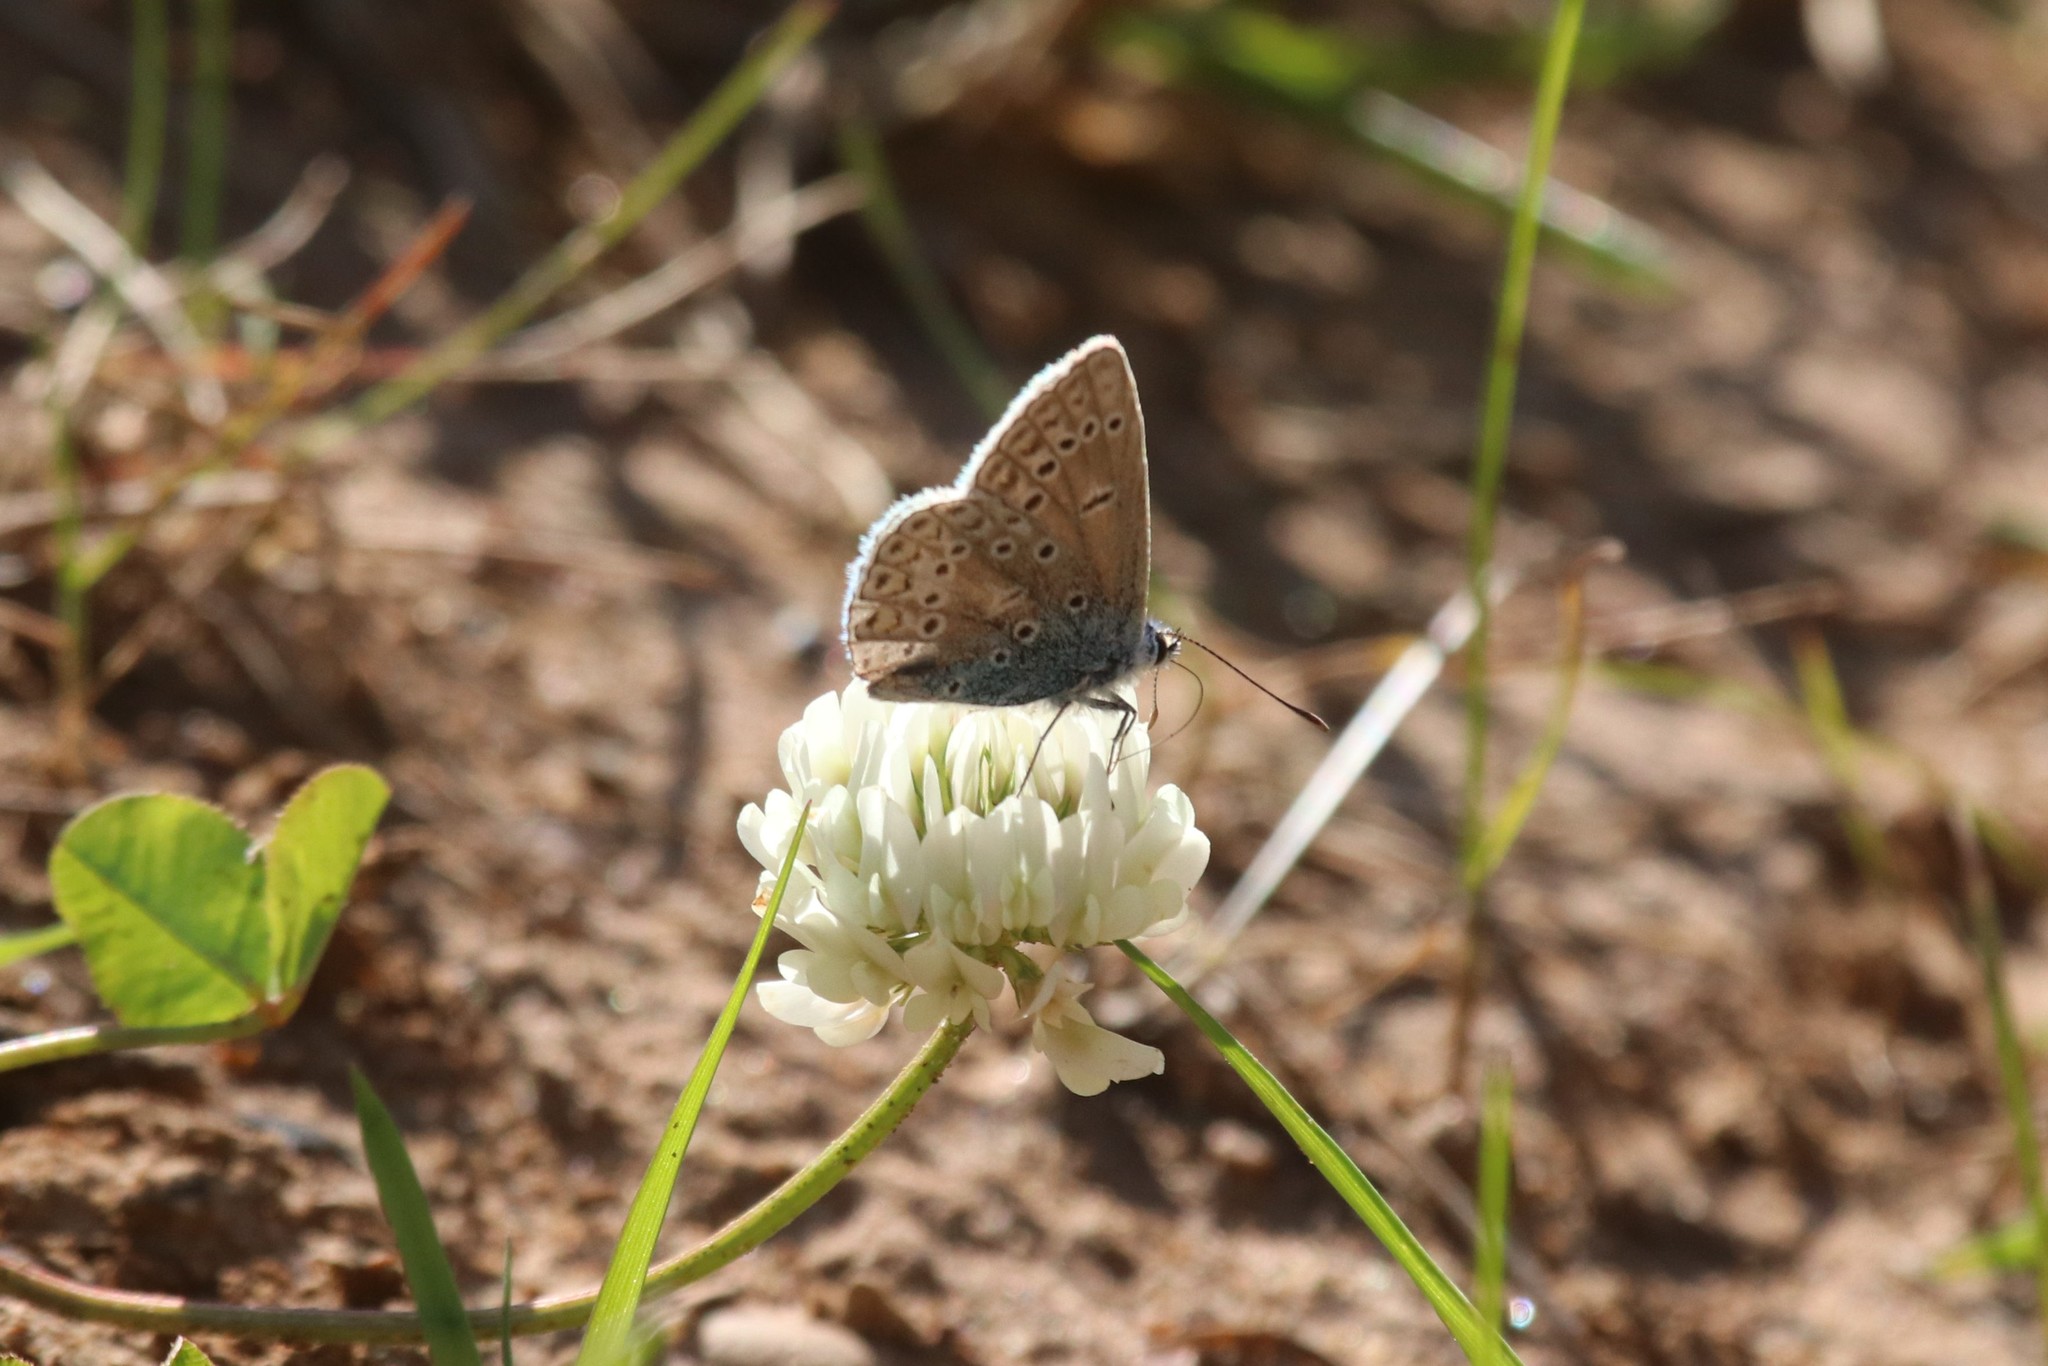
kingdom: Plantae
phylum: Tracheophyta
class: Magnoliopsida
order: Fabales
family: Fabaceae
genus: Trifolium
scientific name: Trifolium repens
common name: White clover
